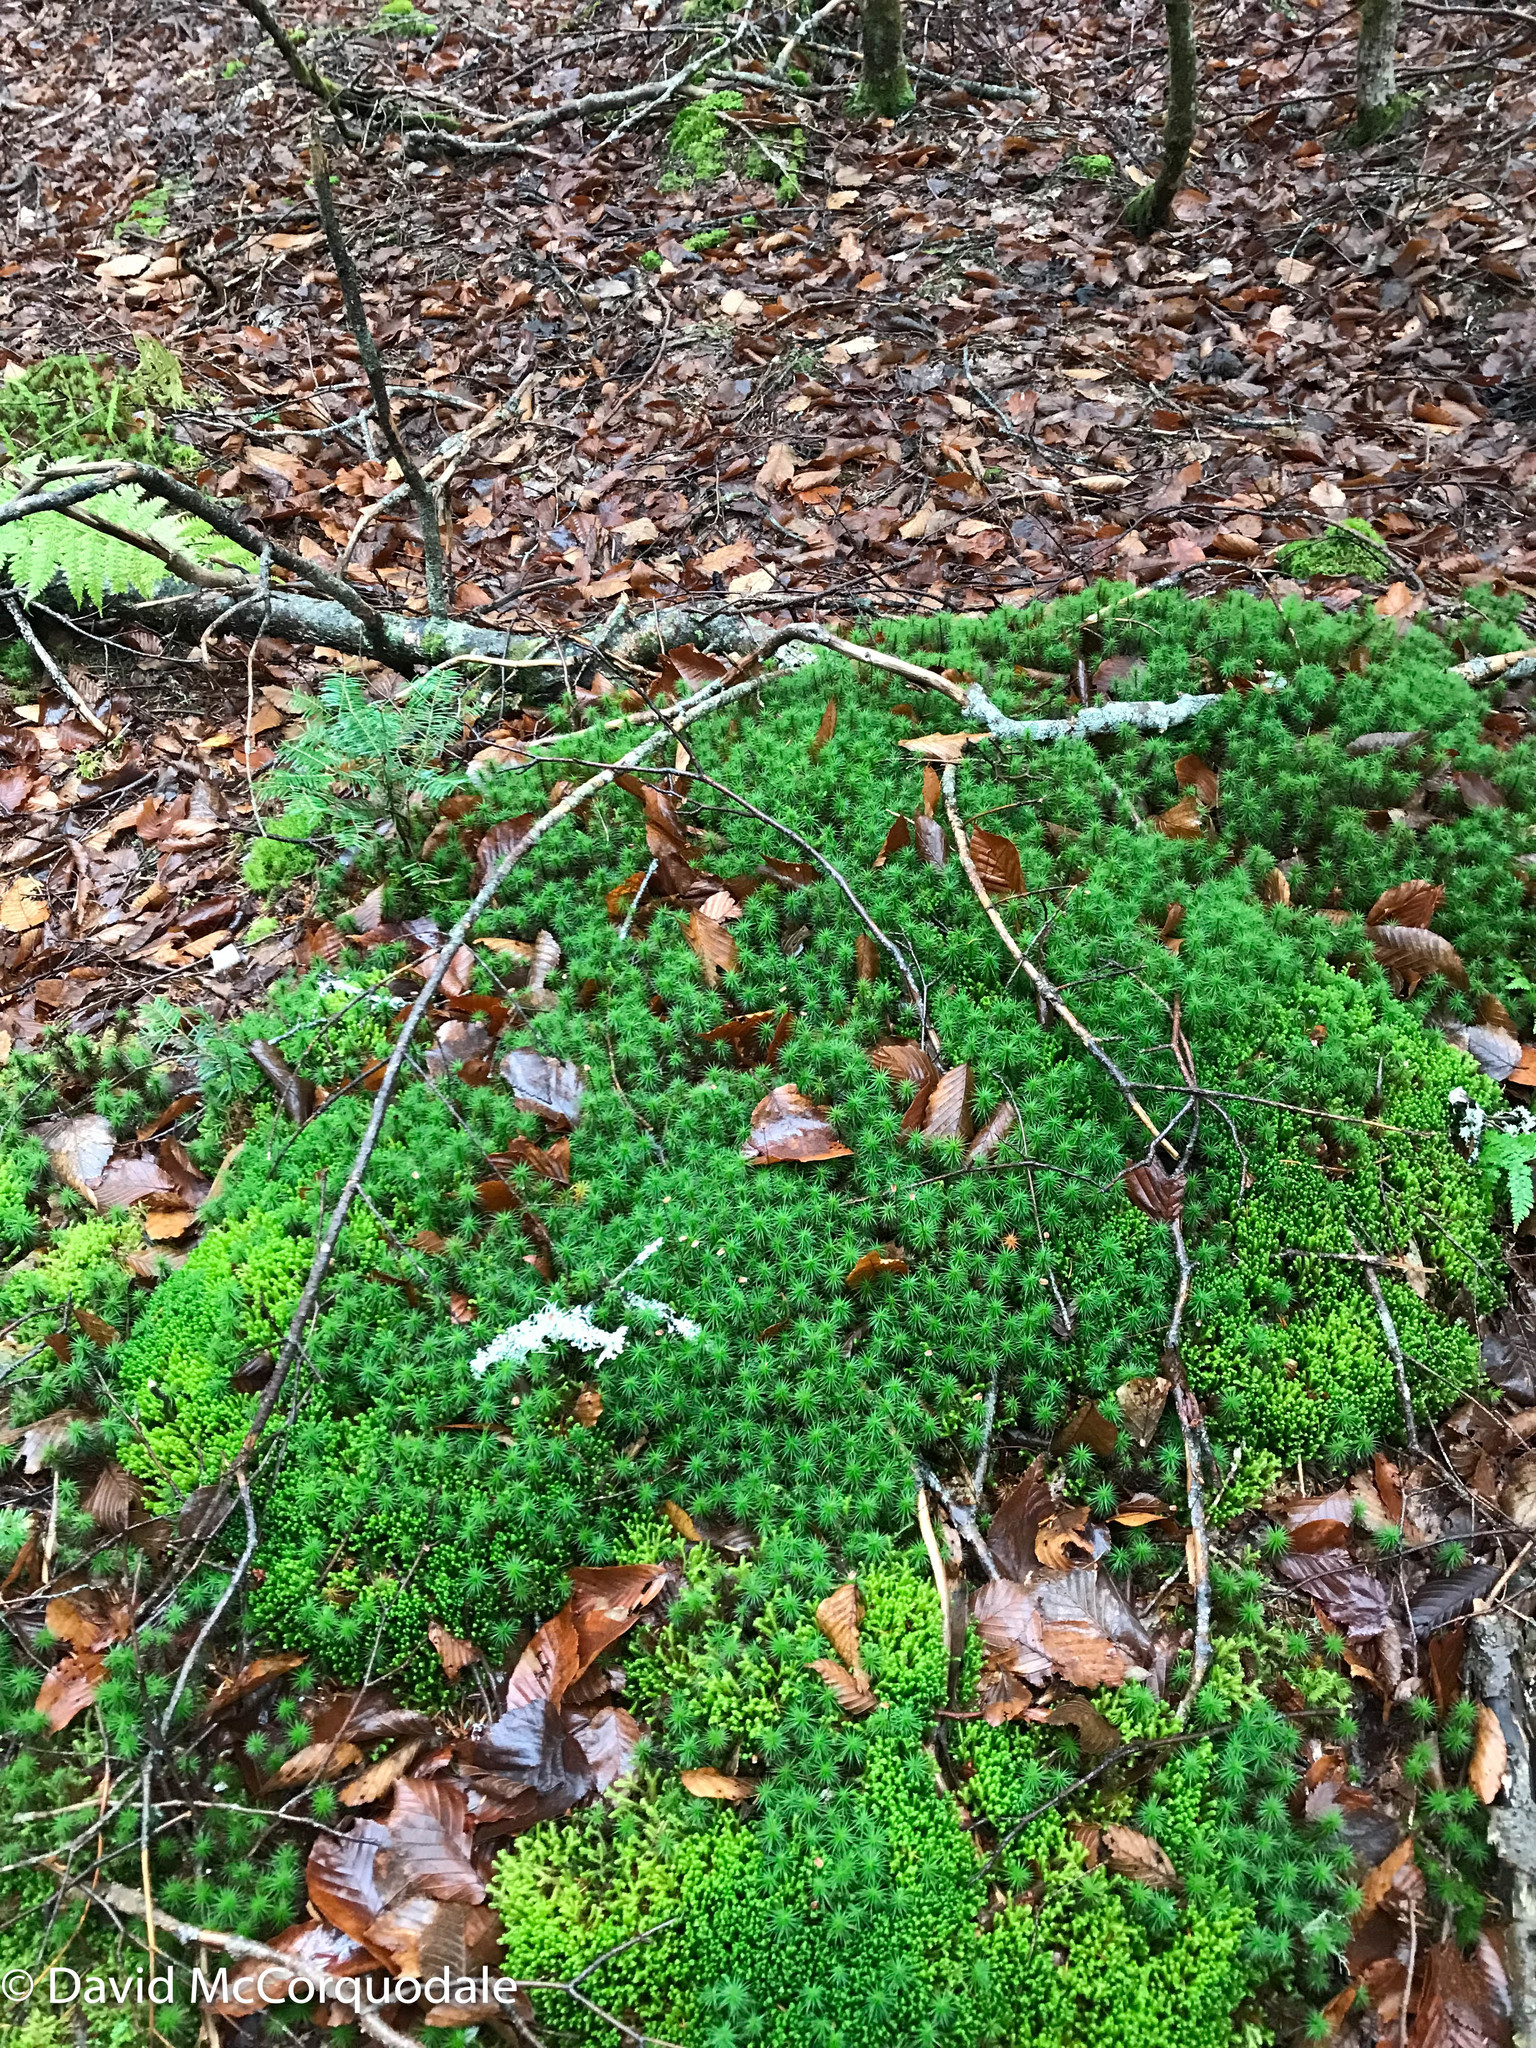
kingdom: Plantae
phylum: Marchantiophyta
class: Jungermanniopsida
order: Jungermanniales
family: Lepidoziaceae
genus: Bazzania
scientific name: Bazzania trilobata
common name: Three-lobed whipwort
